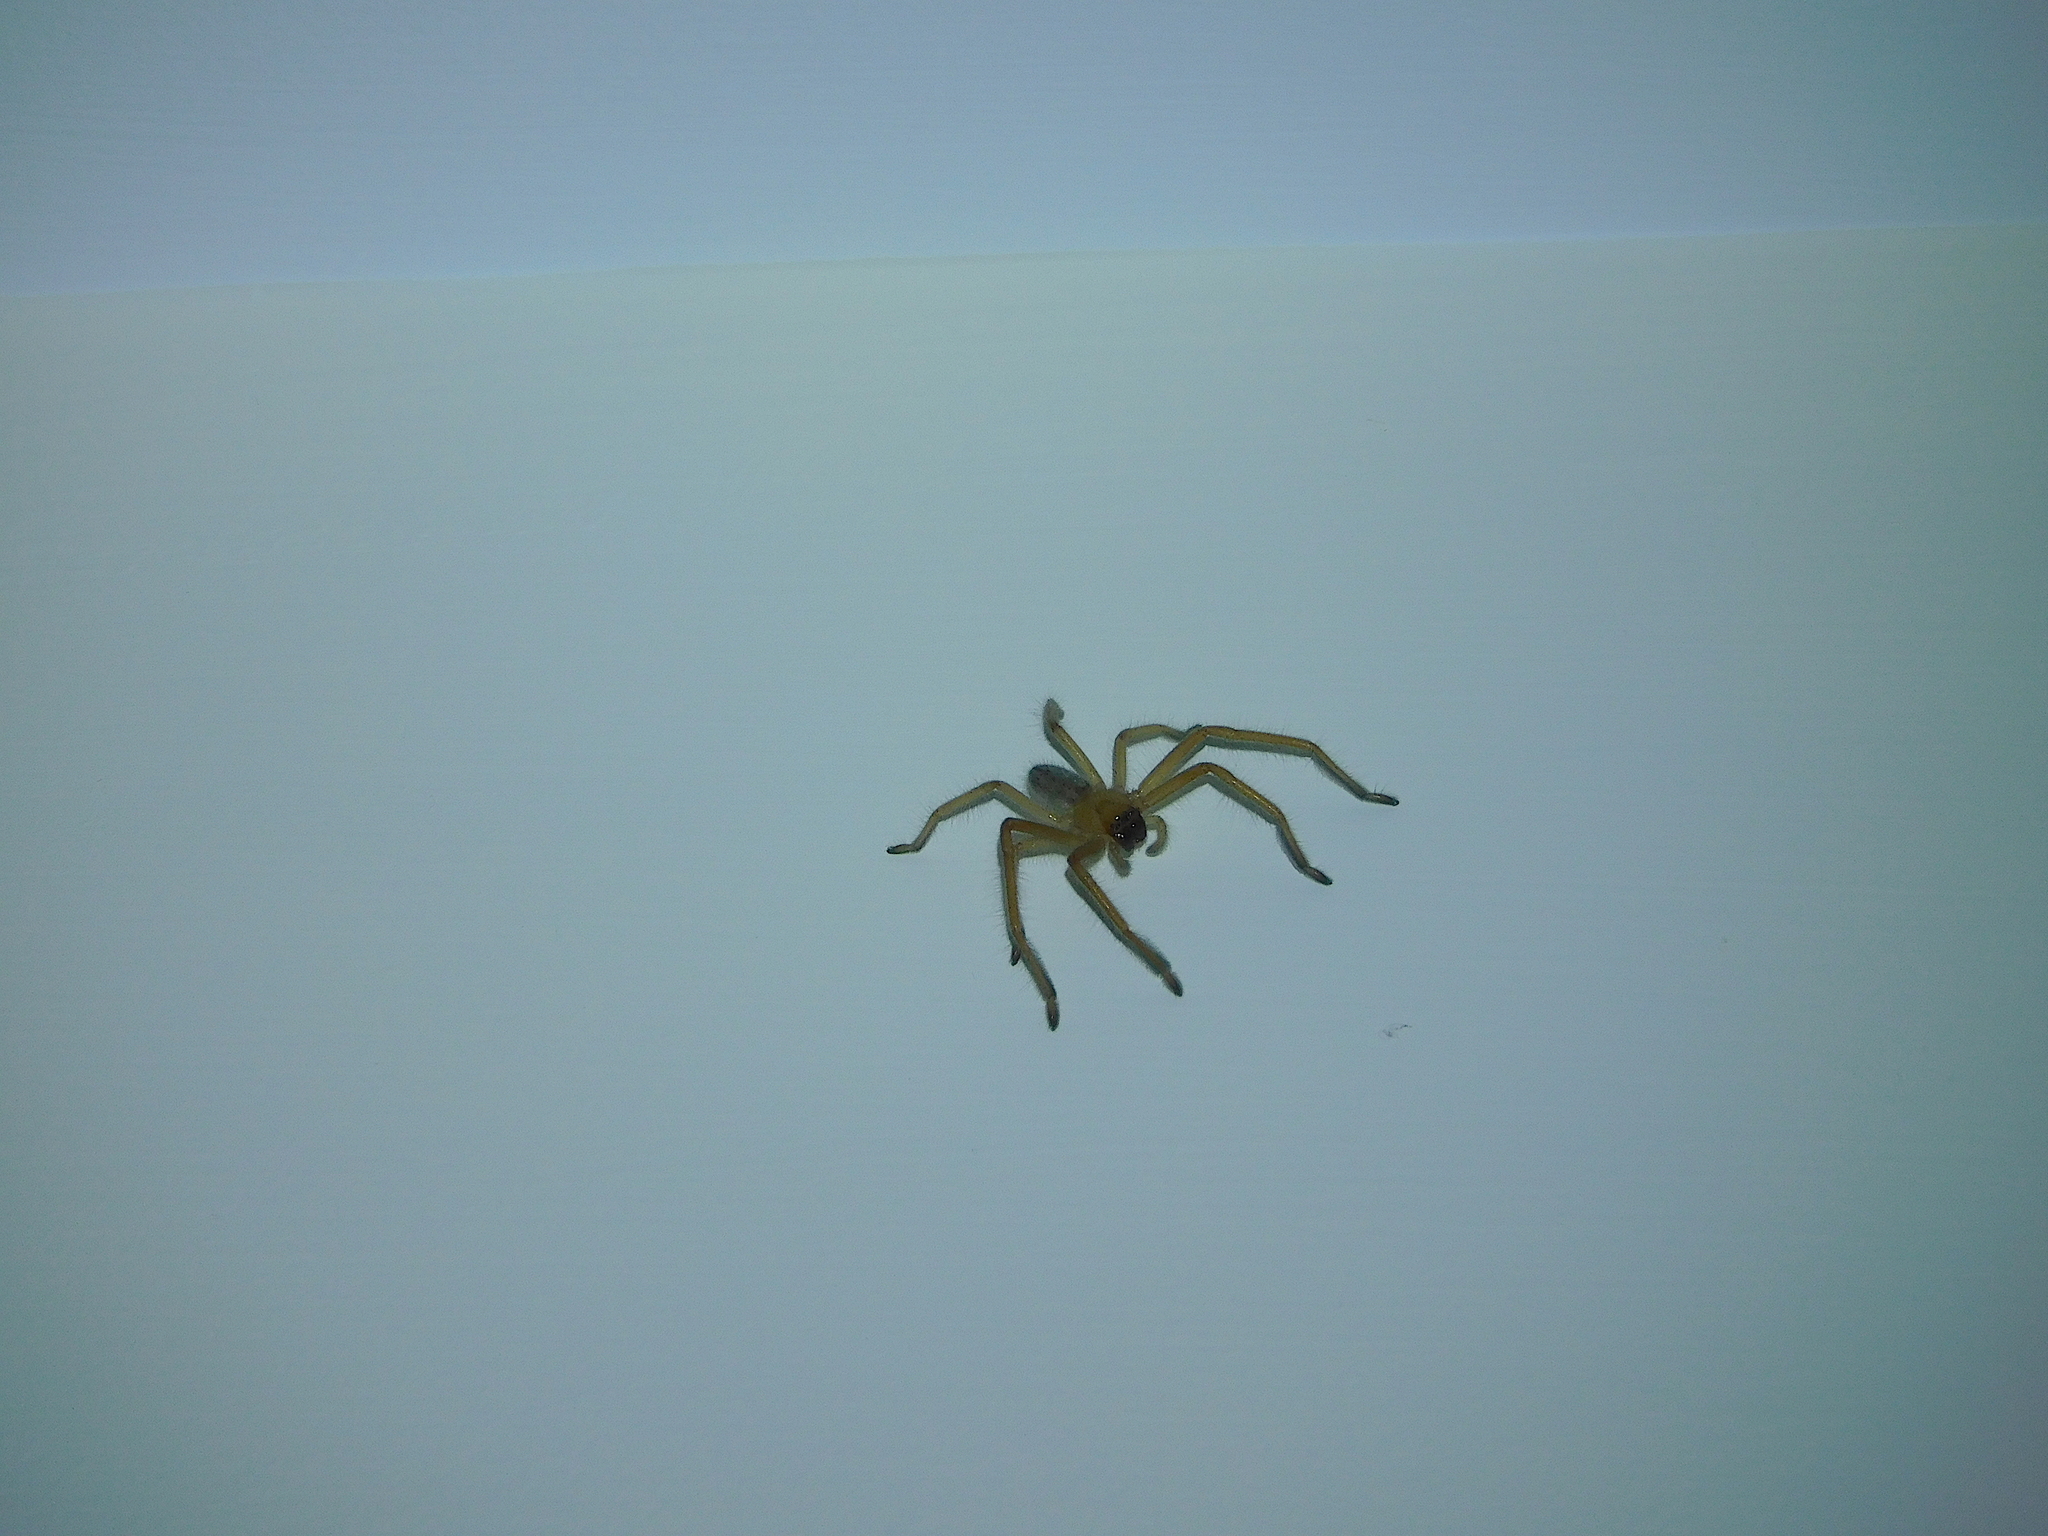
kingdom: Animalia
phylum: Arthropoda
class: Arachnida
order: Araneae
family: Sparassidae
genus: Delena
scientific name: Delena cancerides
